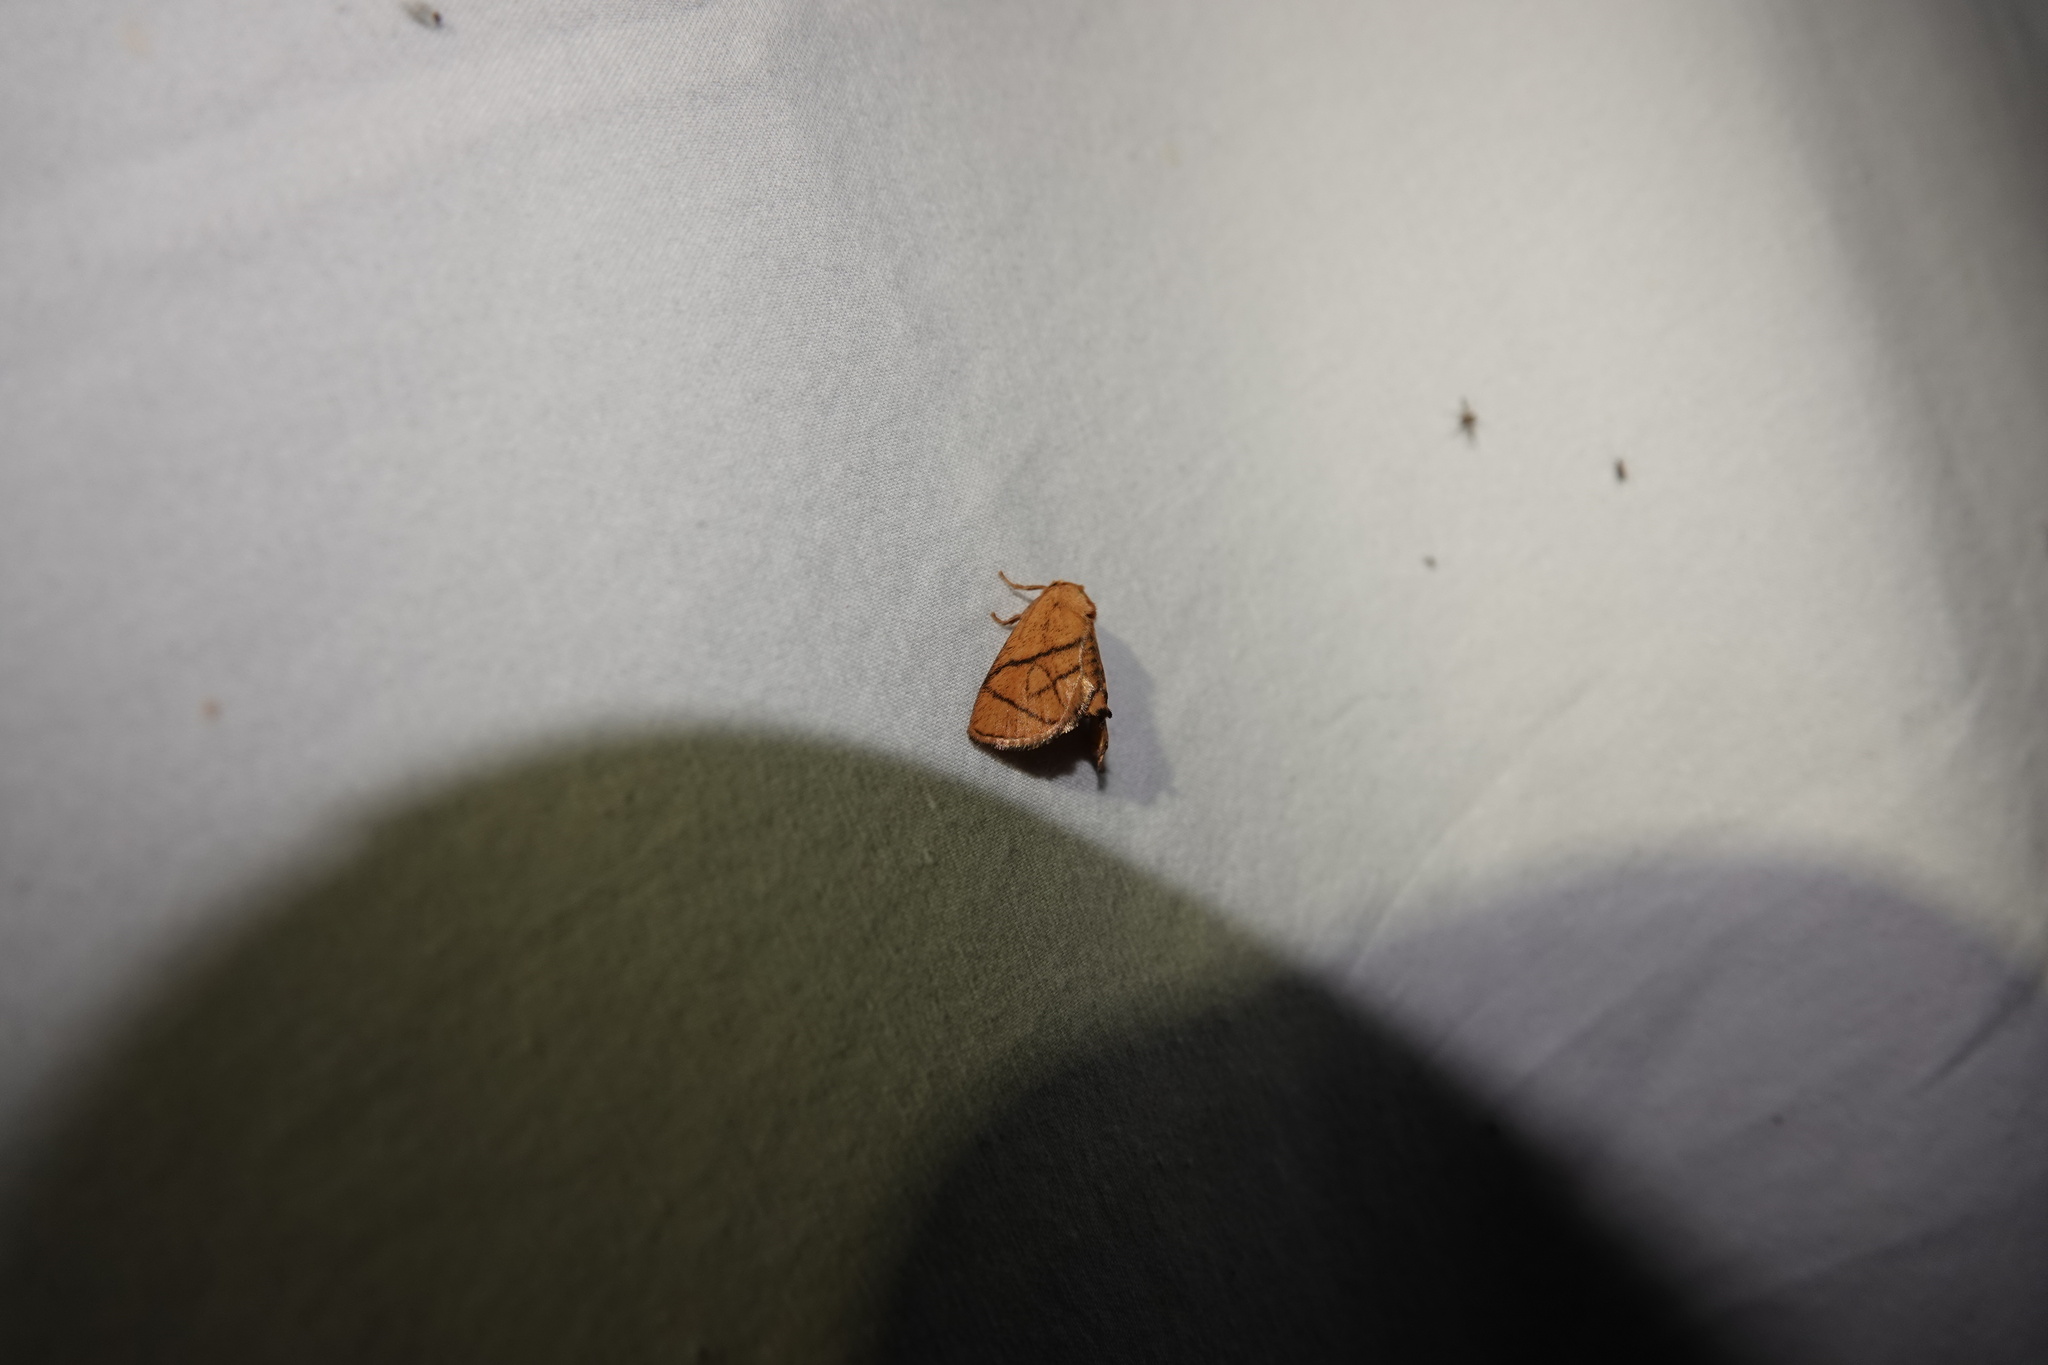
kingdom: Animalia
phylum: Arthropoda
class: Insecta
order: Lepidoptera
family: Limacodidae
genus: Apoda
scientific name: Apoda y-inversa
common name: Yellow-collared slug moth
